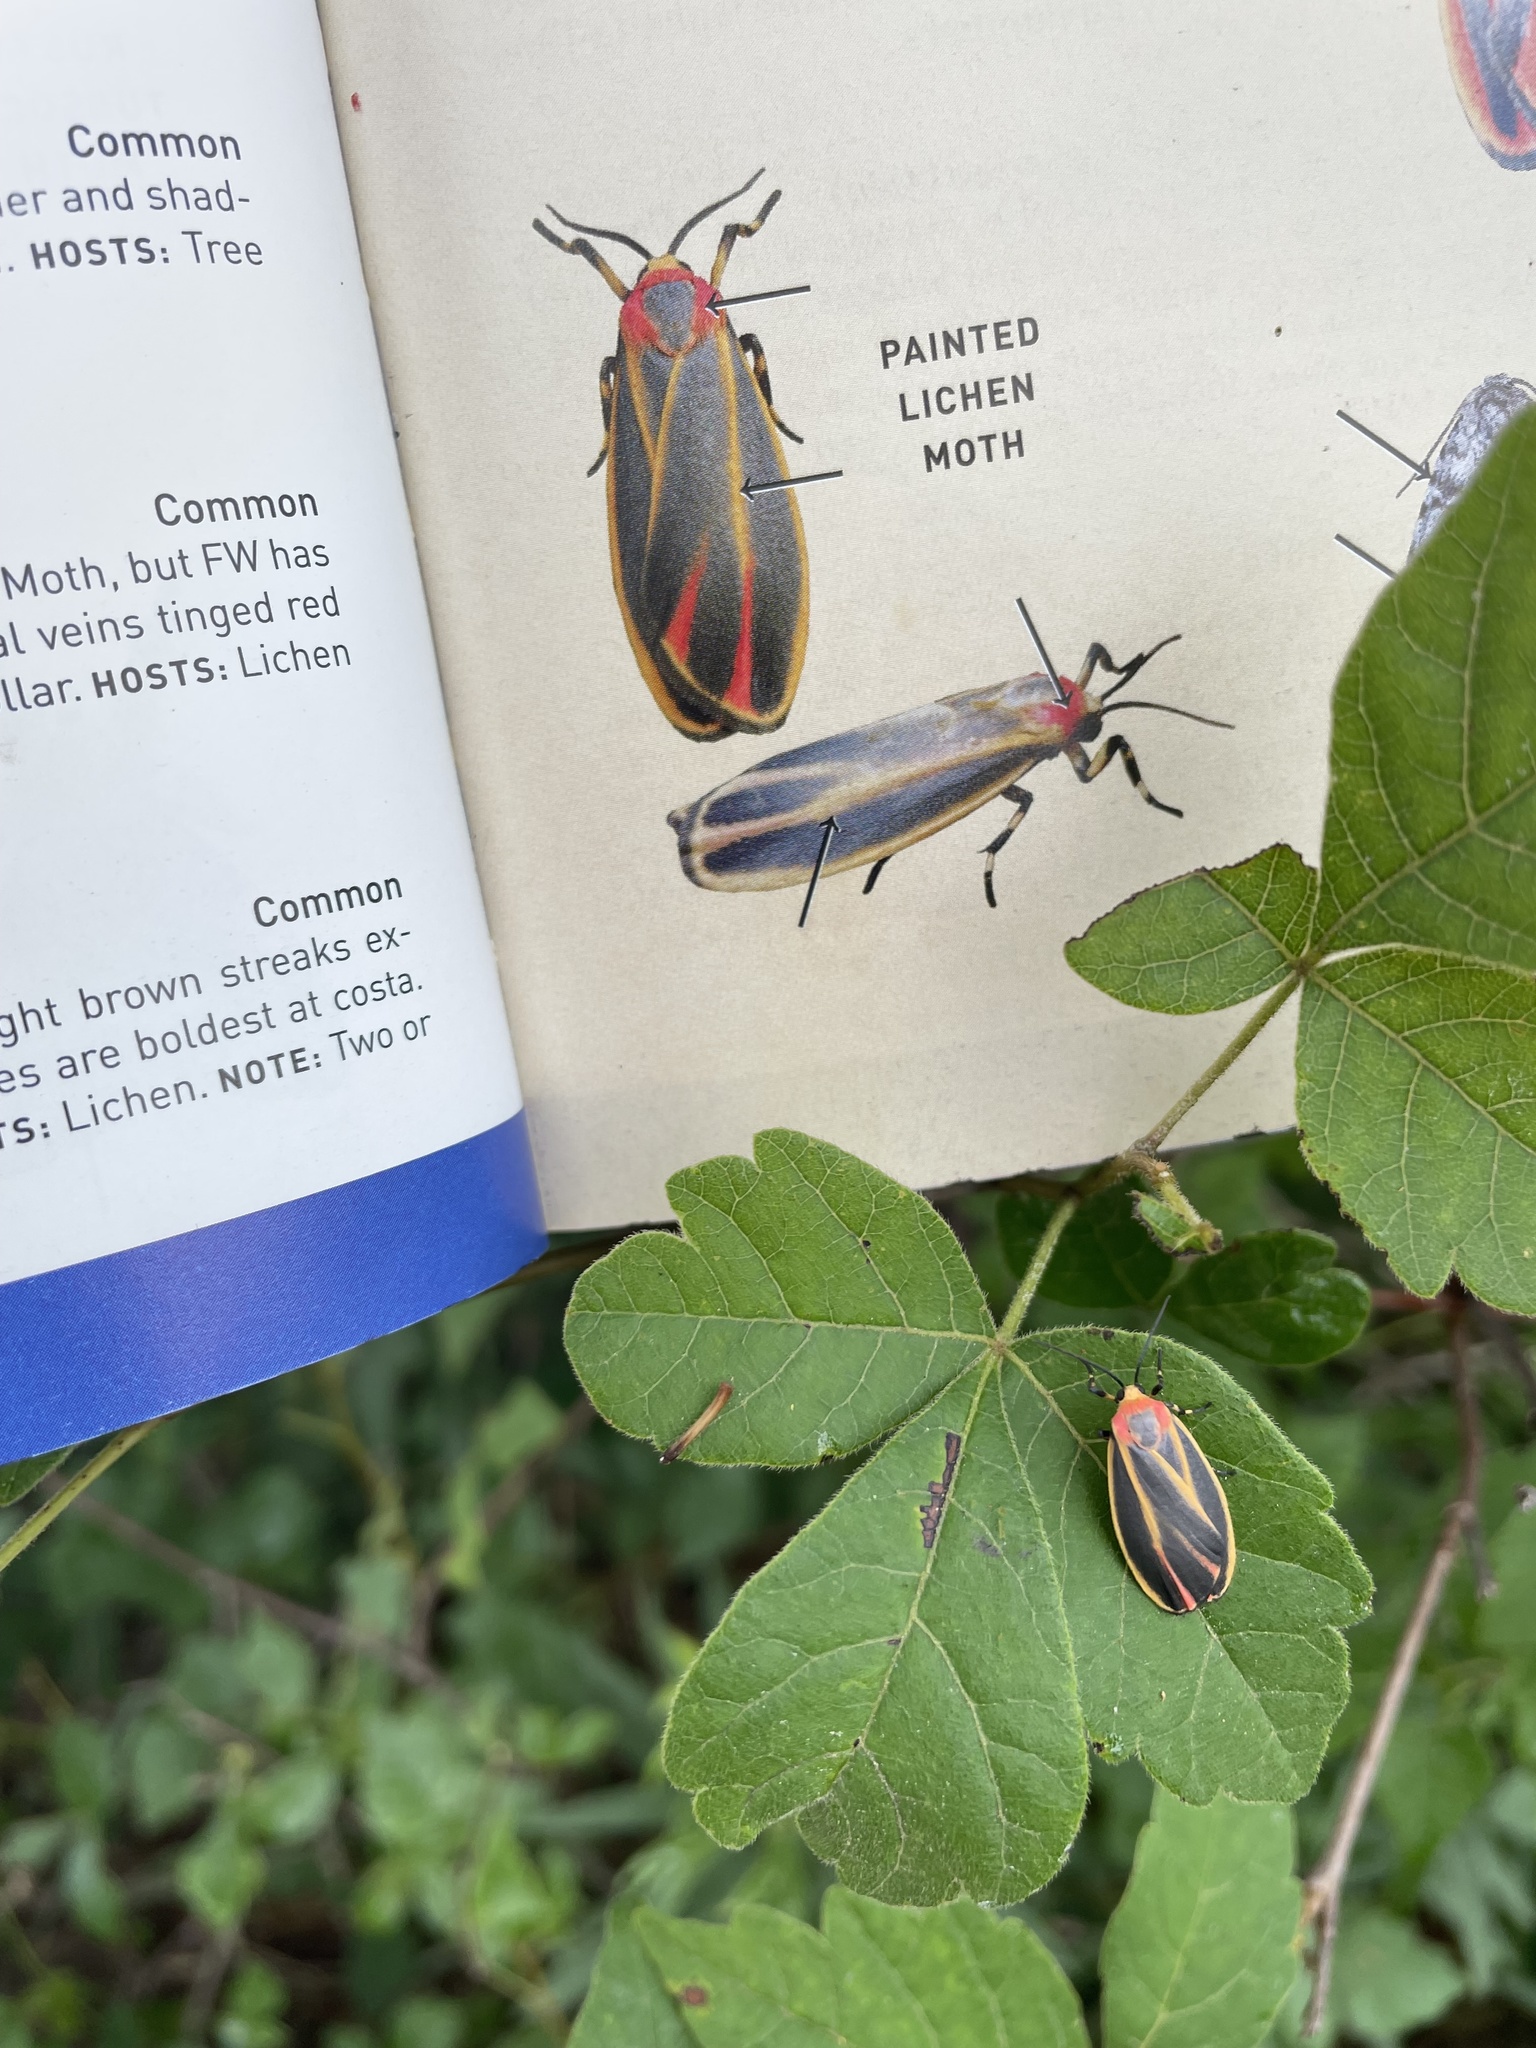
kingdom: Animalia
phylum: Arthropoda
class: Insecta
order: Lepidoptera
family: Erebidae
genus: Hypoprepia
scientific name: Hypoprepia fucosa
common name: Painted lichen moth
